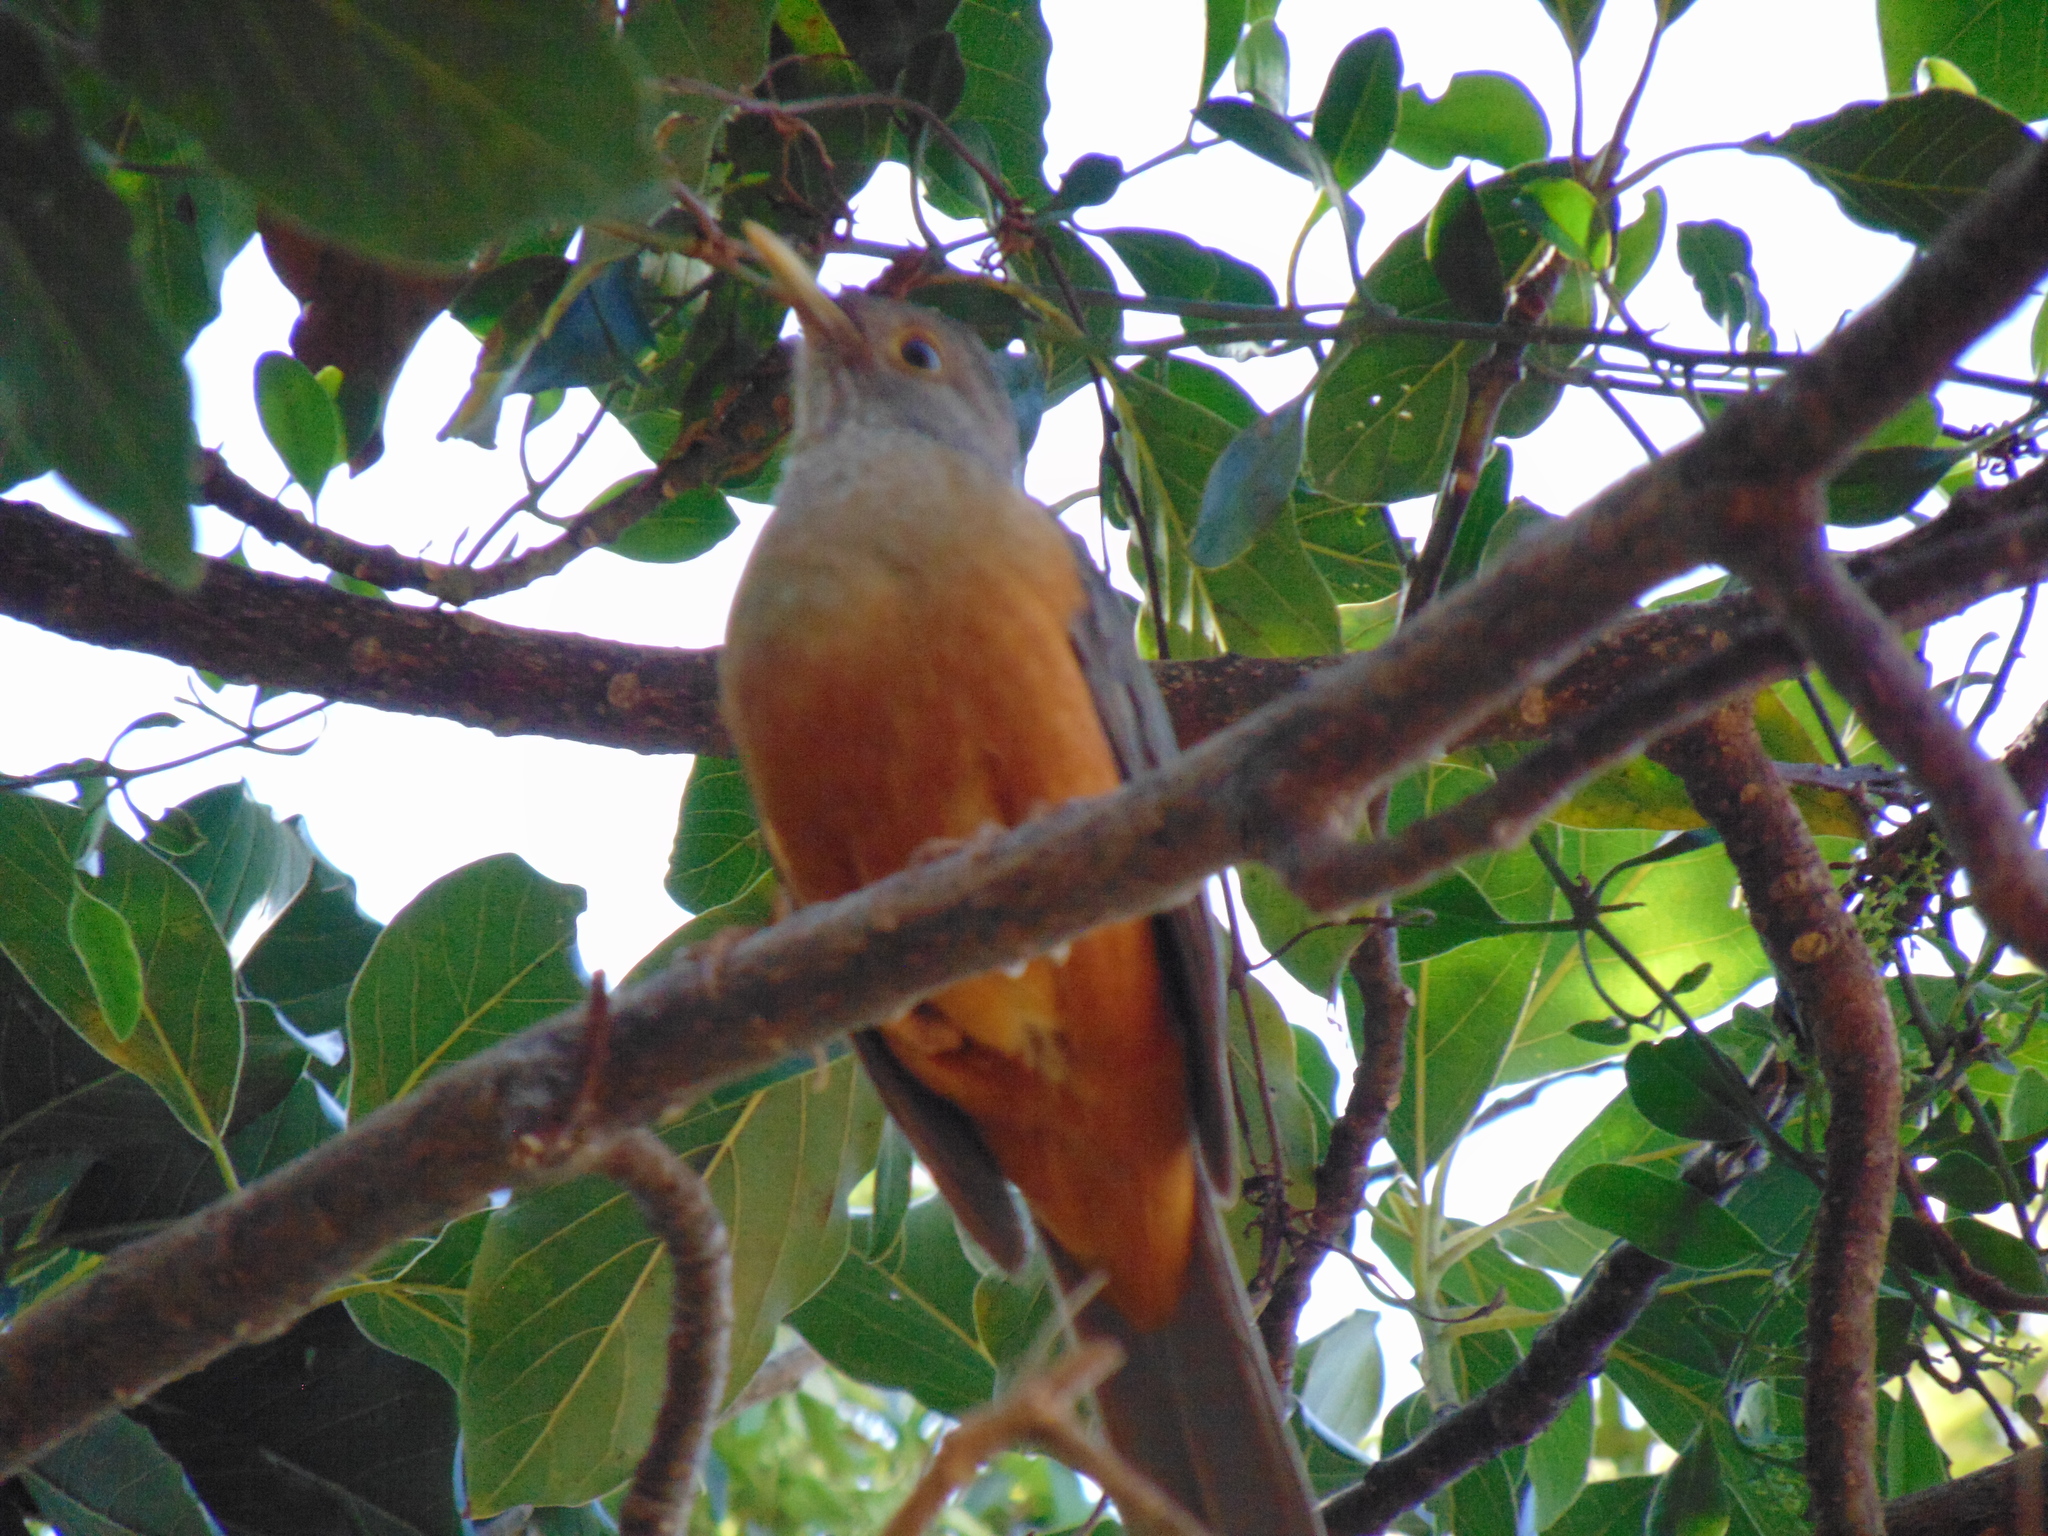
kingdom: Animalia
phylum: Chordata
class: Aves
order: Passeriformes
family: Turdidae
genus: Turdus
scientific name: Turdus rufiventris
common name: Rufous-bellied thrush
